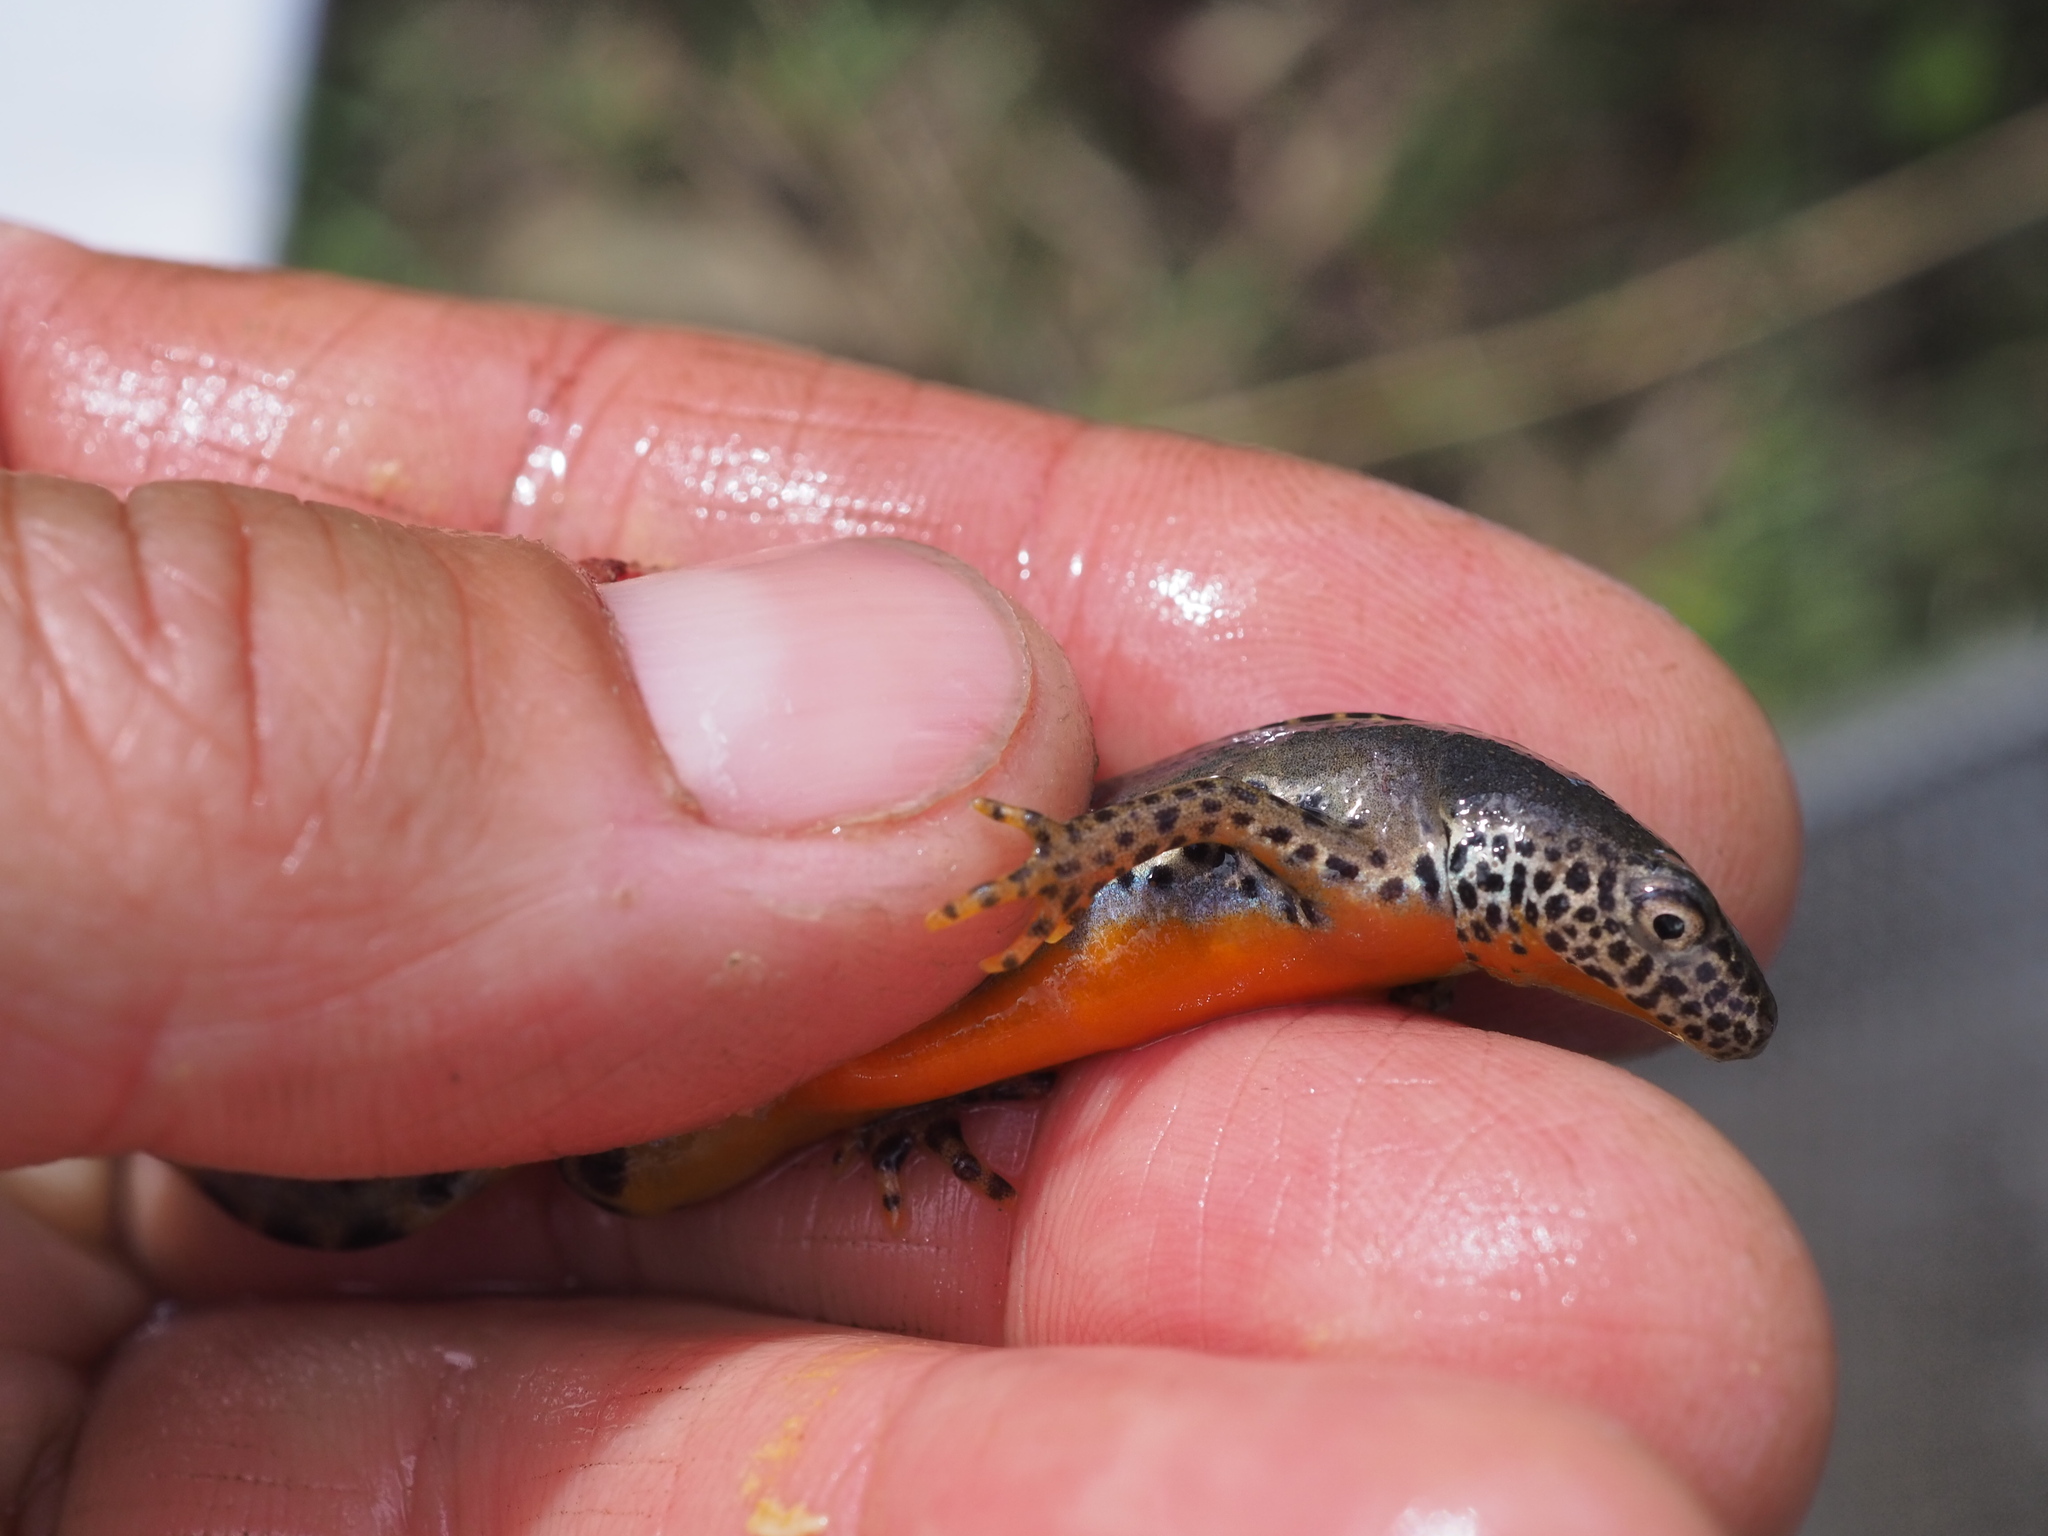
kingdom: Animalia
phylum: Chordata
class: Amphibia
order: Caudata
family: Salamandridae
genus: Ichthyosaura
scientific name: Ichthyosaura alpestris
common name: Alpine newt
